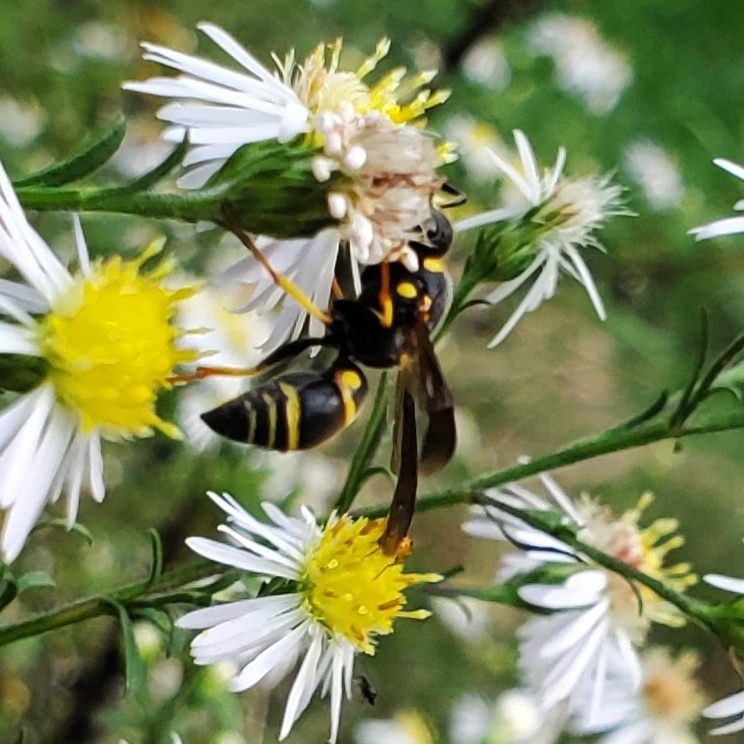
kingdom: Animalia
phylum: Arthropoda
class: Insecta
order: Hymenoptera
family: Eumenidae
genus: Euodynerus
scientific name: Euodynerus foraminatus
